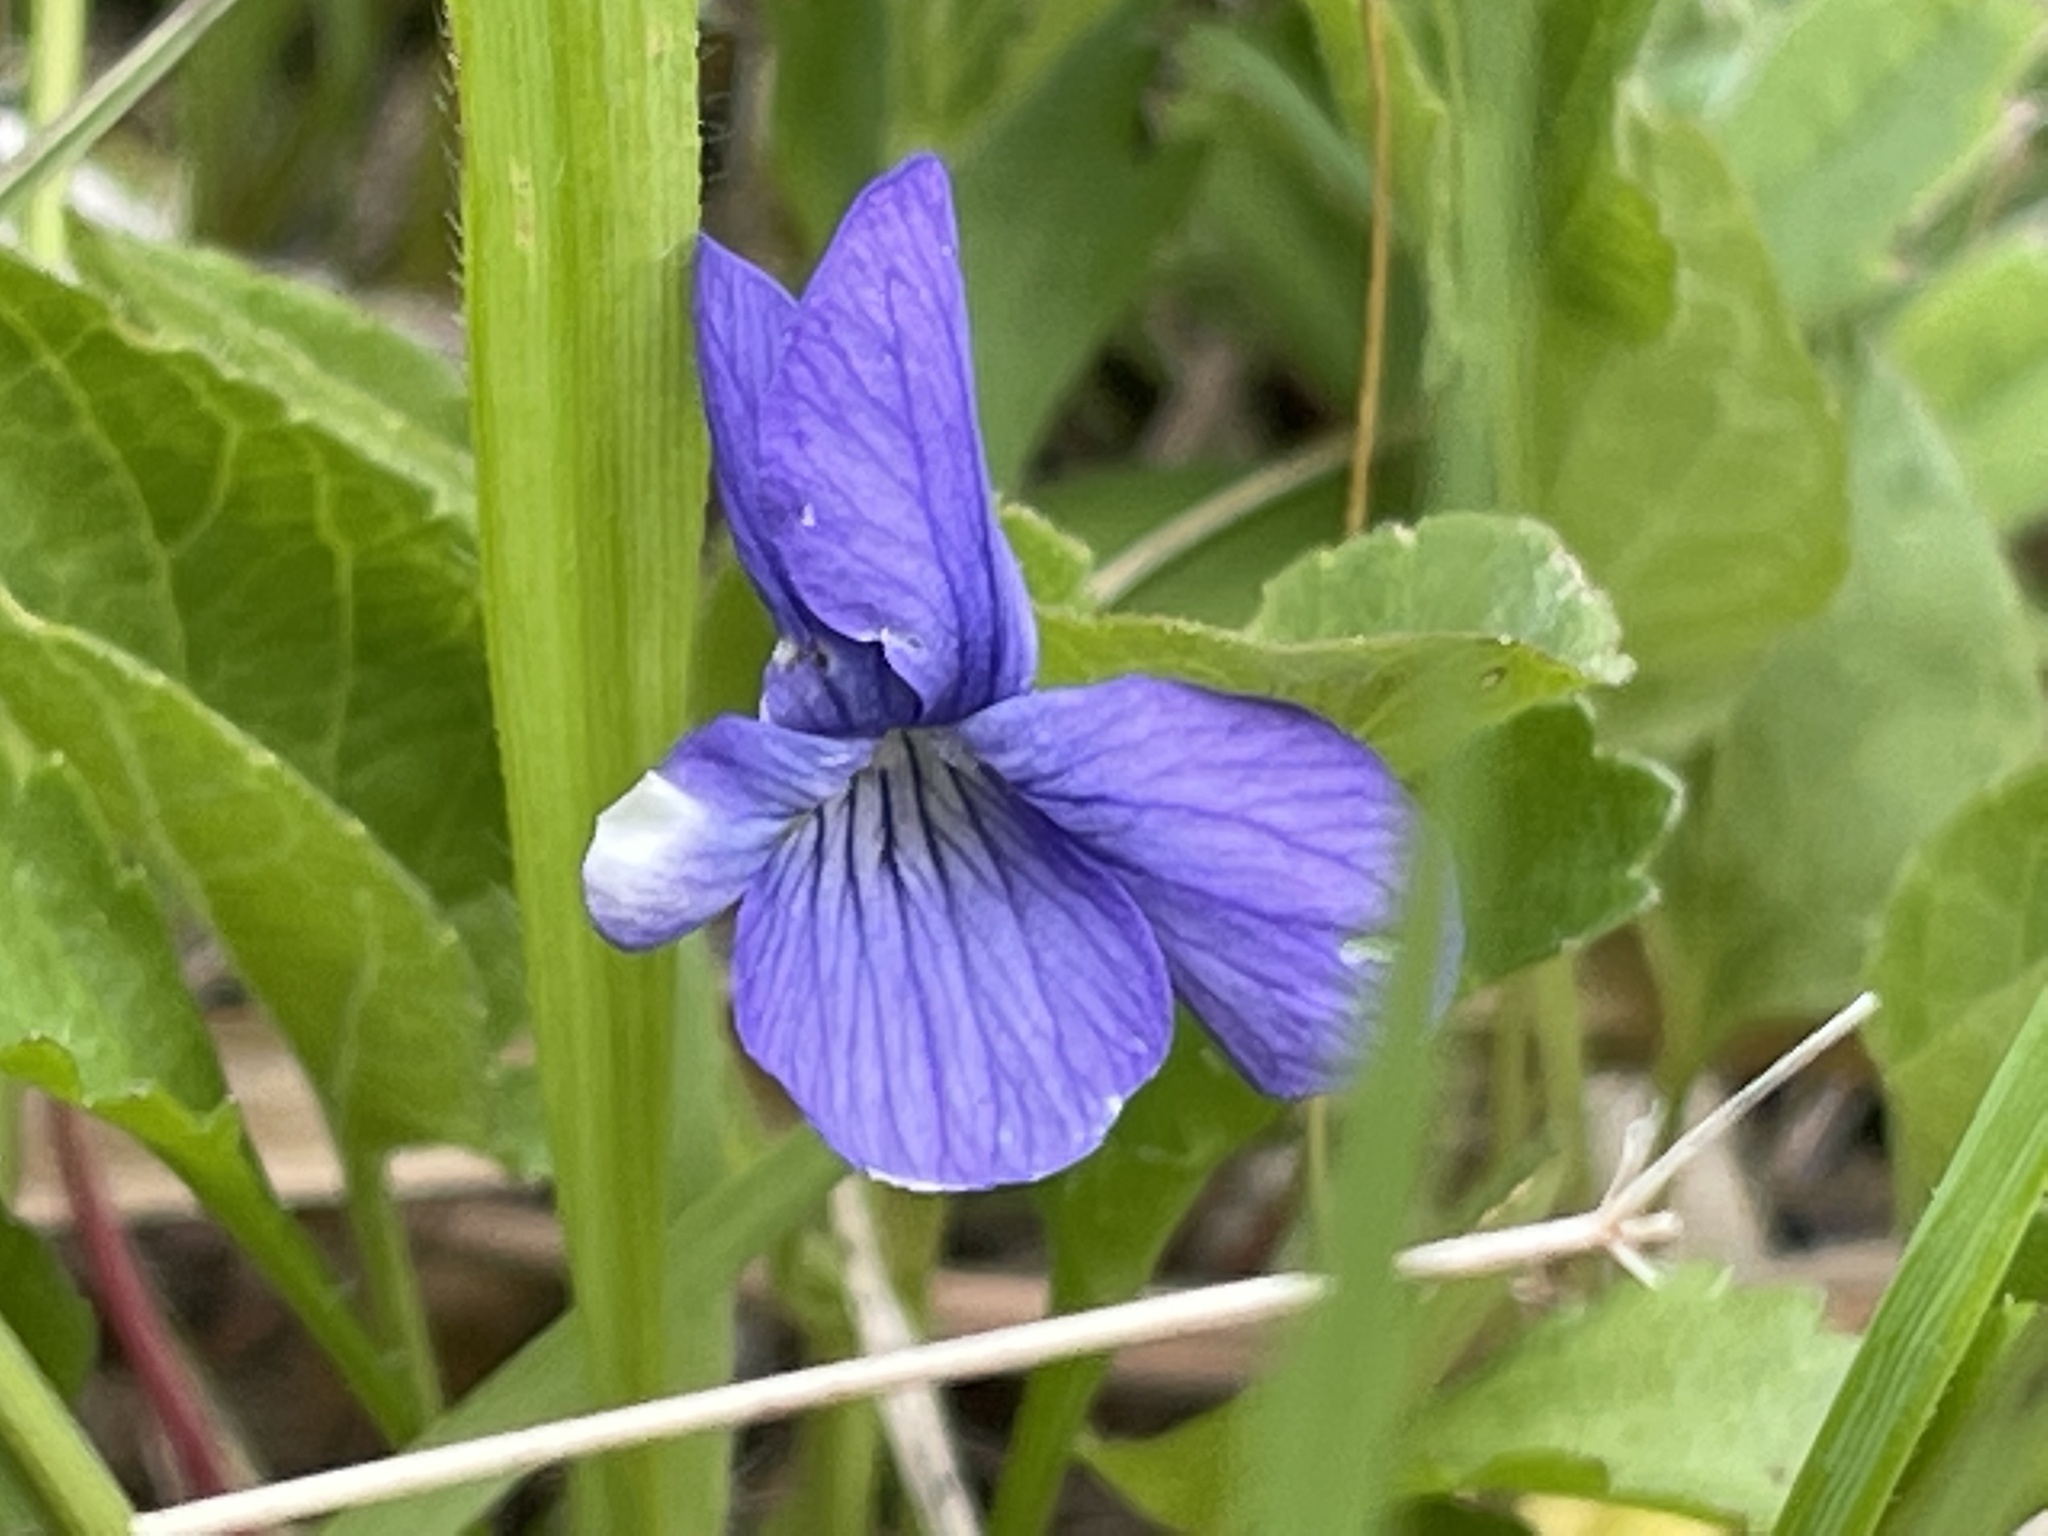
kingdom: Plantae
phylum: Tracheophyta
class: Magnoliopsida
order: Malpighiales
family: Violaceae
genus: Viola
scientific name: Viola adunca
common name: Sand violet
